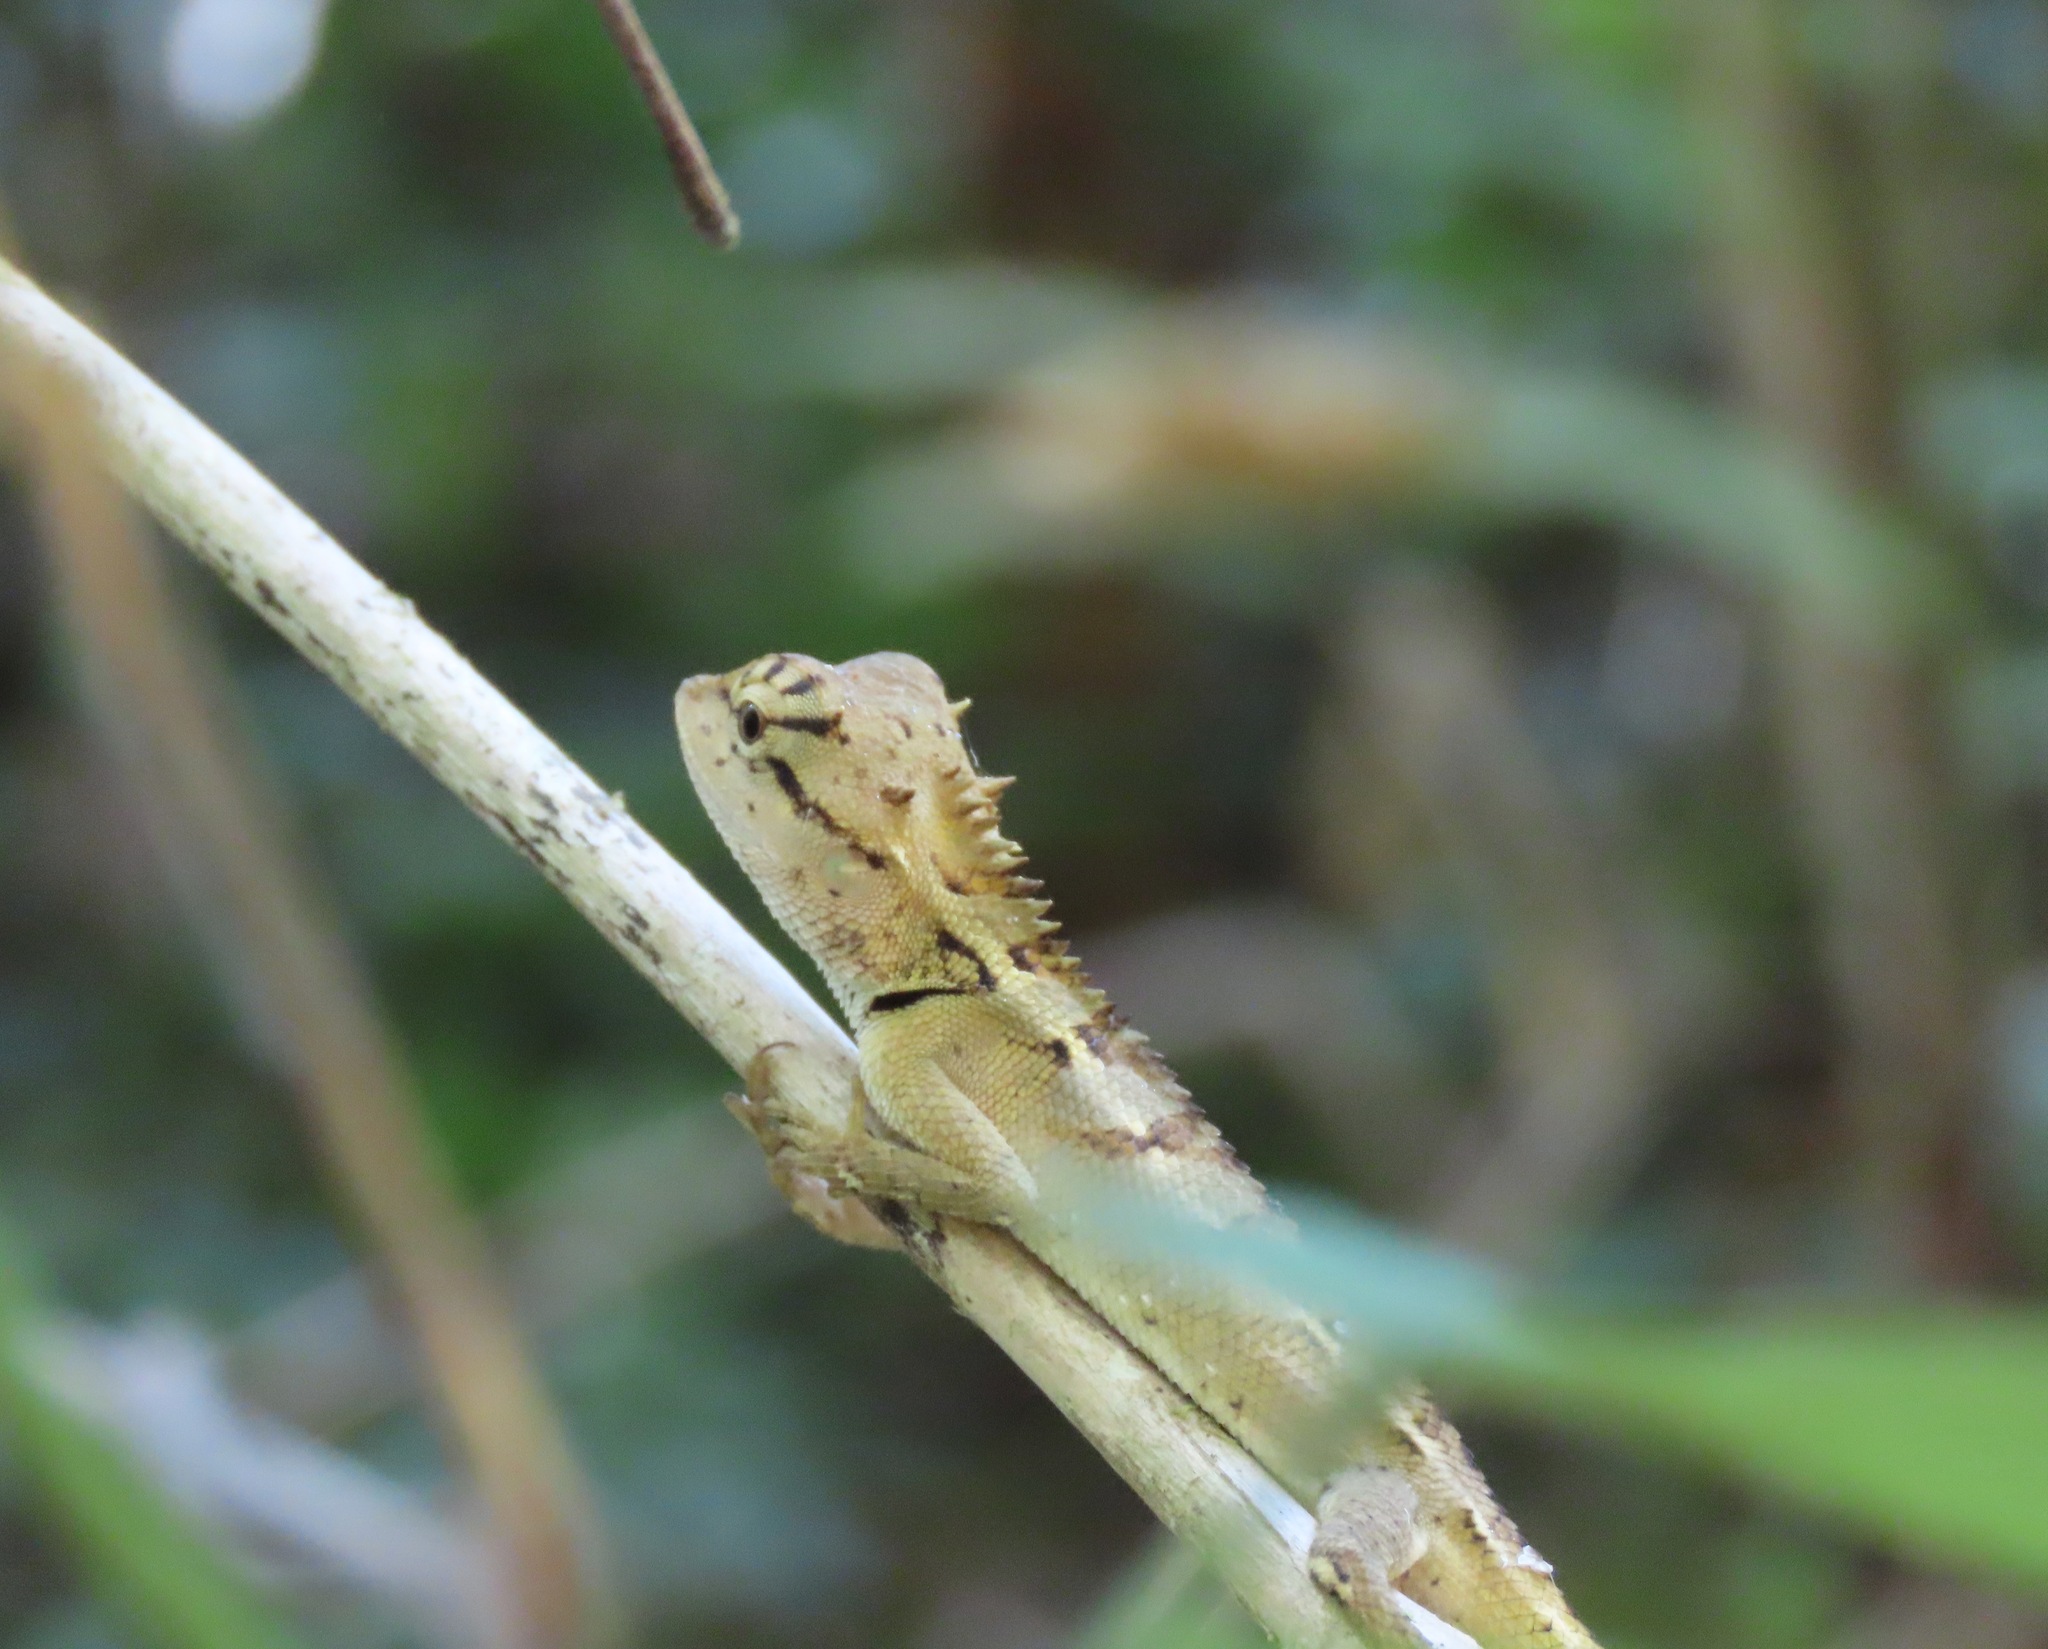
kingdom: Animalia
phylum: Chordata
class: Squamata
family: Agamidae
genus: Calotes
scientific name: Calotes emma
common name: Thailand bloodsucker
